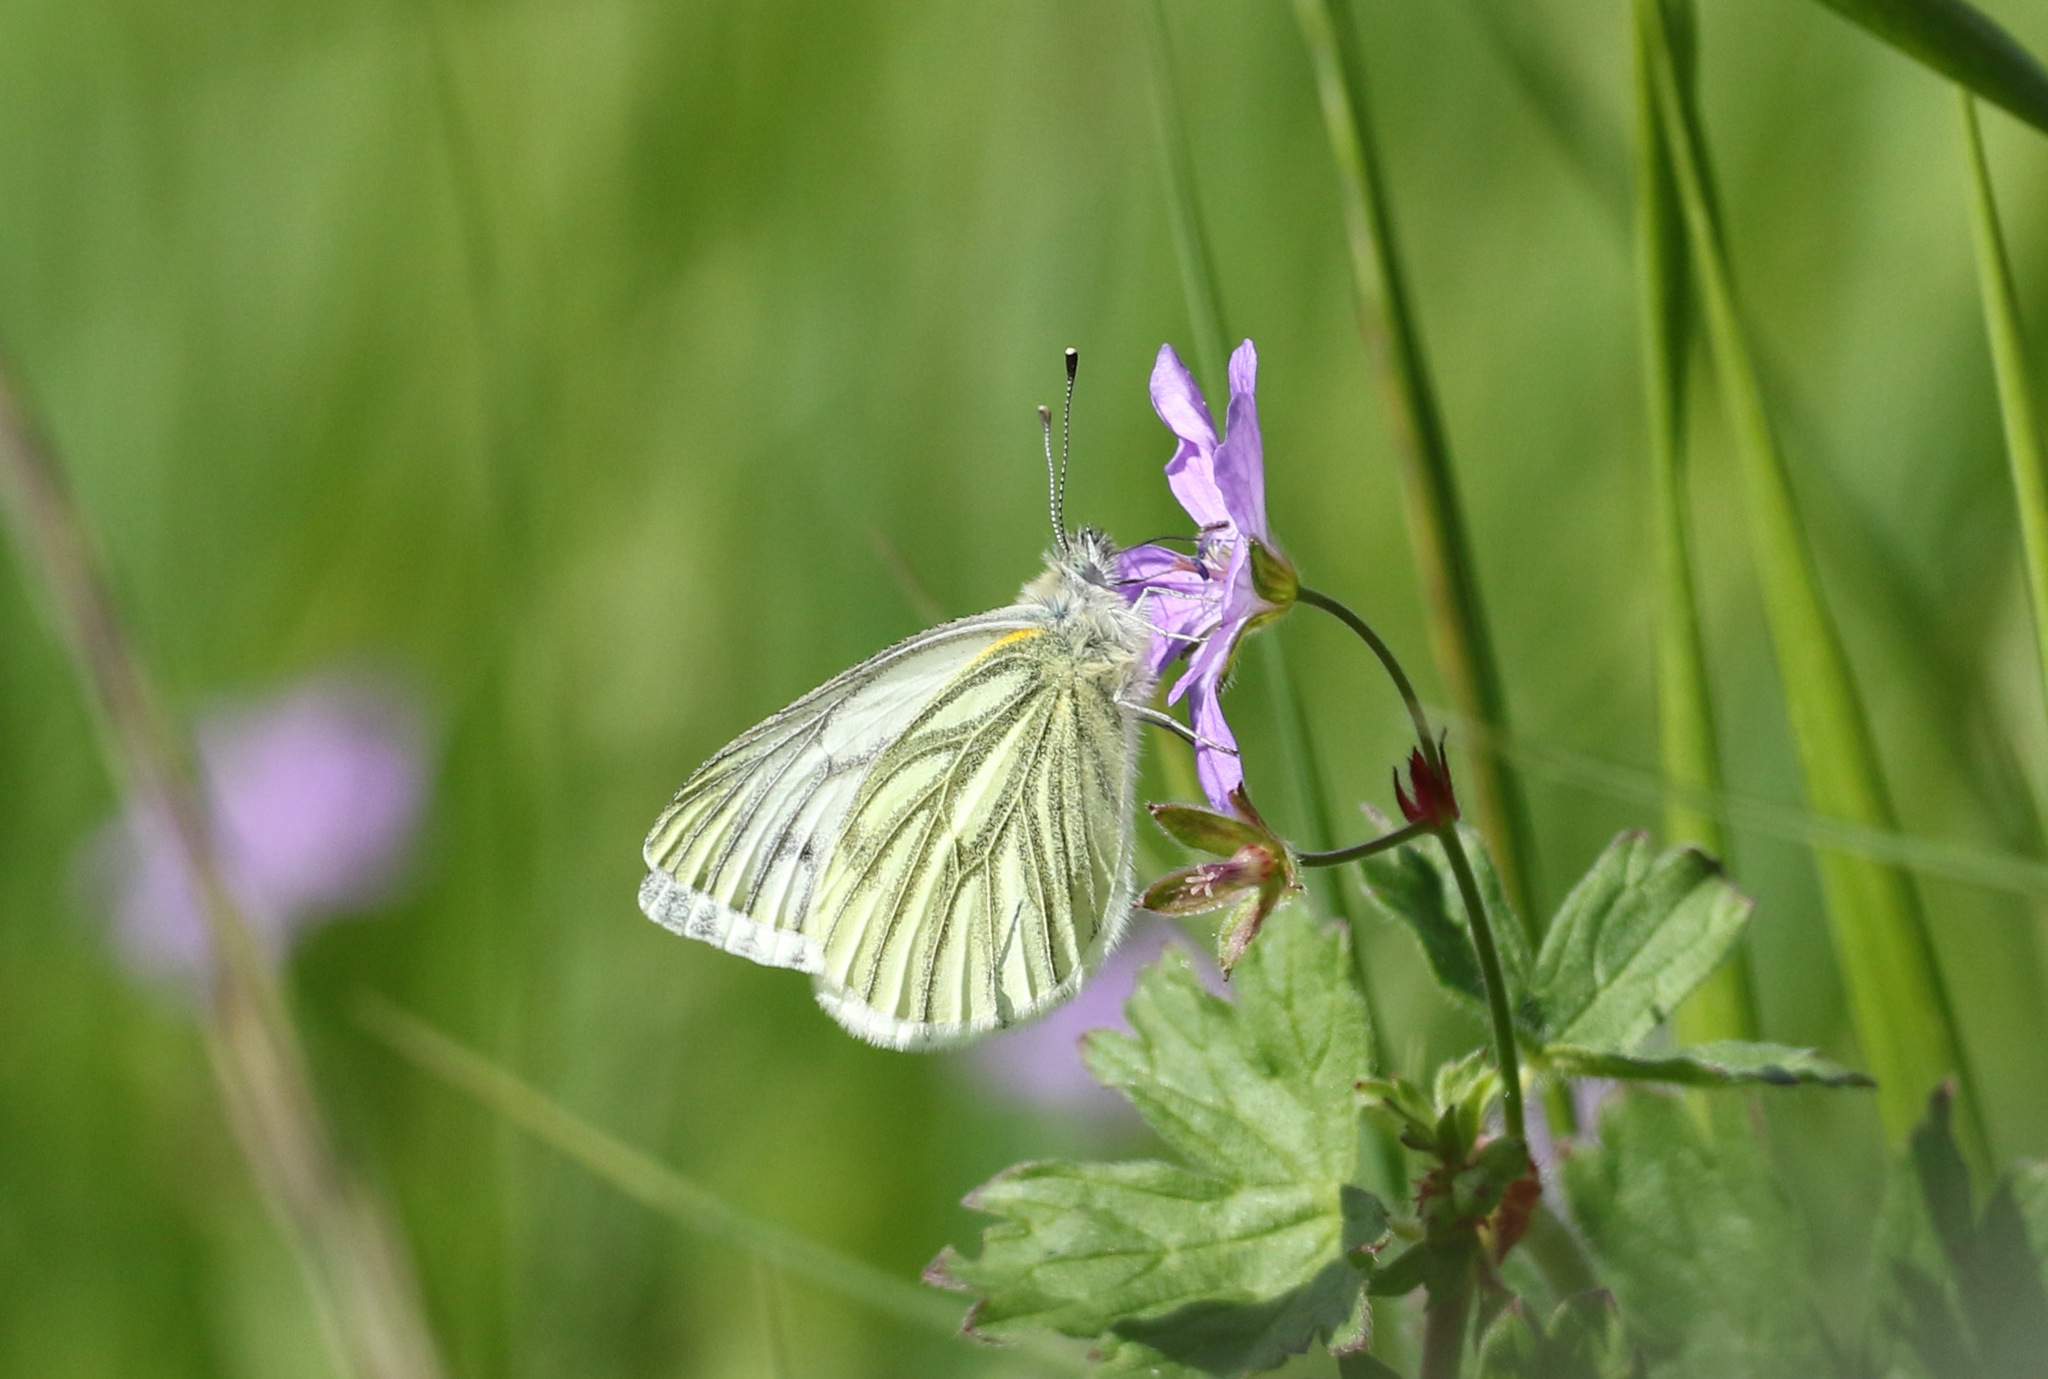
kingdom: Animalia
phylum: Arthropoda
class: Insecta
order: Lepidoptera
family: Pieridae
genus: Pieris
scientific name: Pieris napi
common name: Green-veined white
